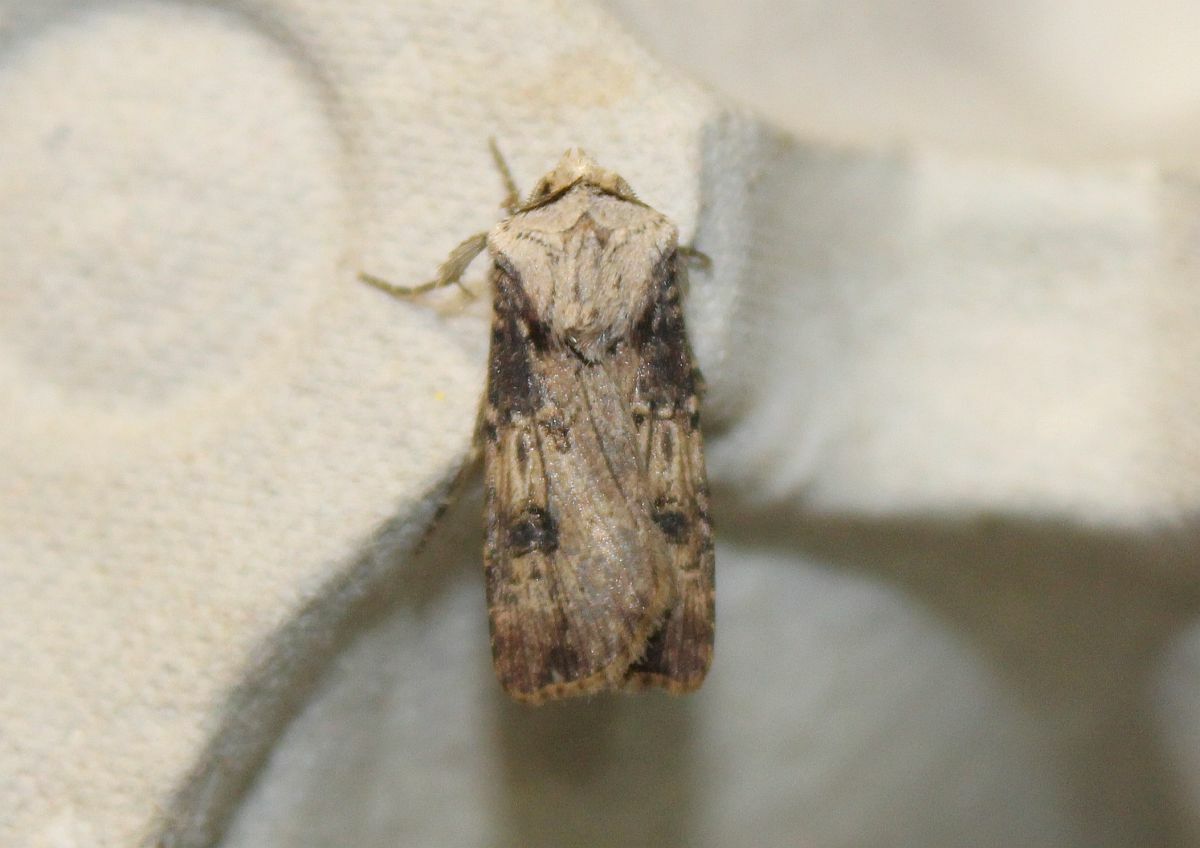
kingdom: Animalia
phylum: Arthropoda
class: Insecta
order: Lepidoptera
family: Noctuidae
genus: Agrotis
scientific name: Agrotis puta
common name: Shuttle-shaped dart
